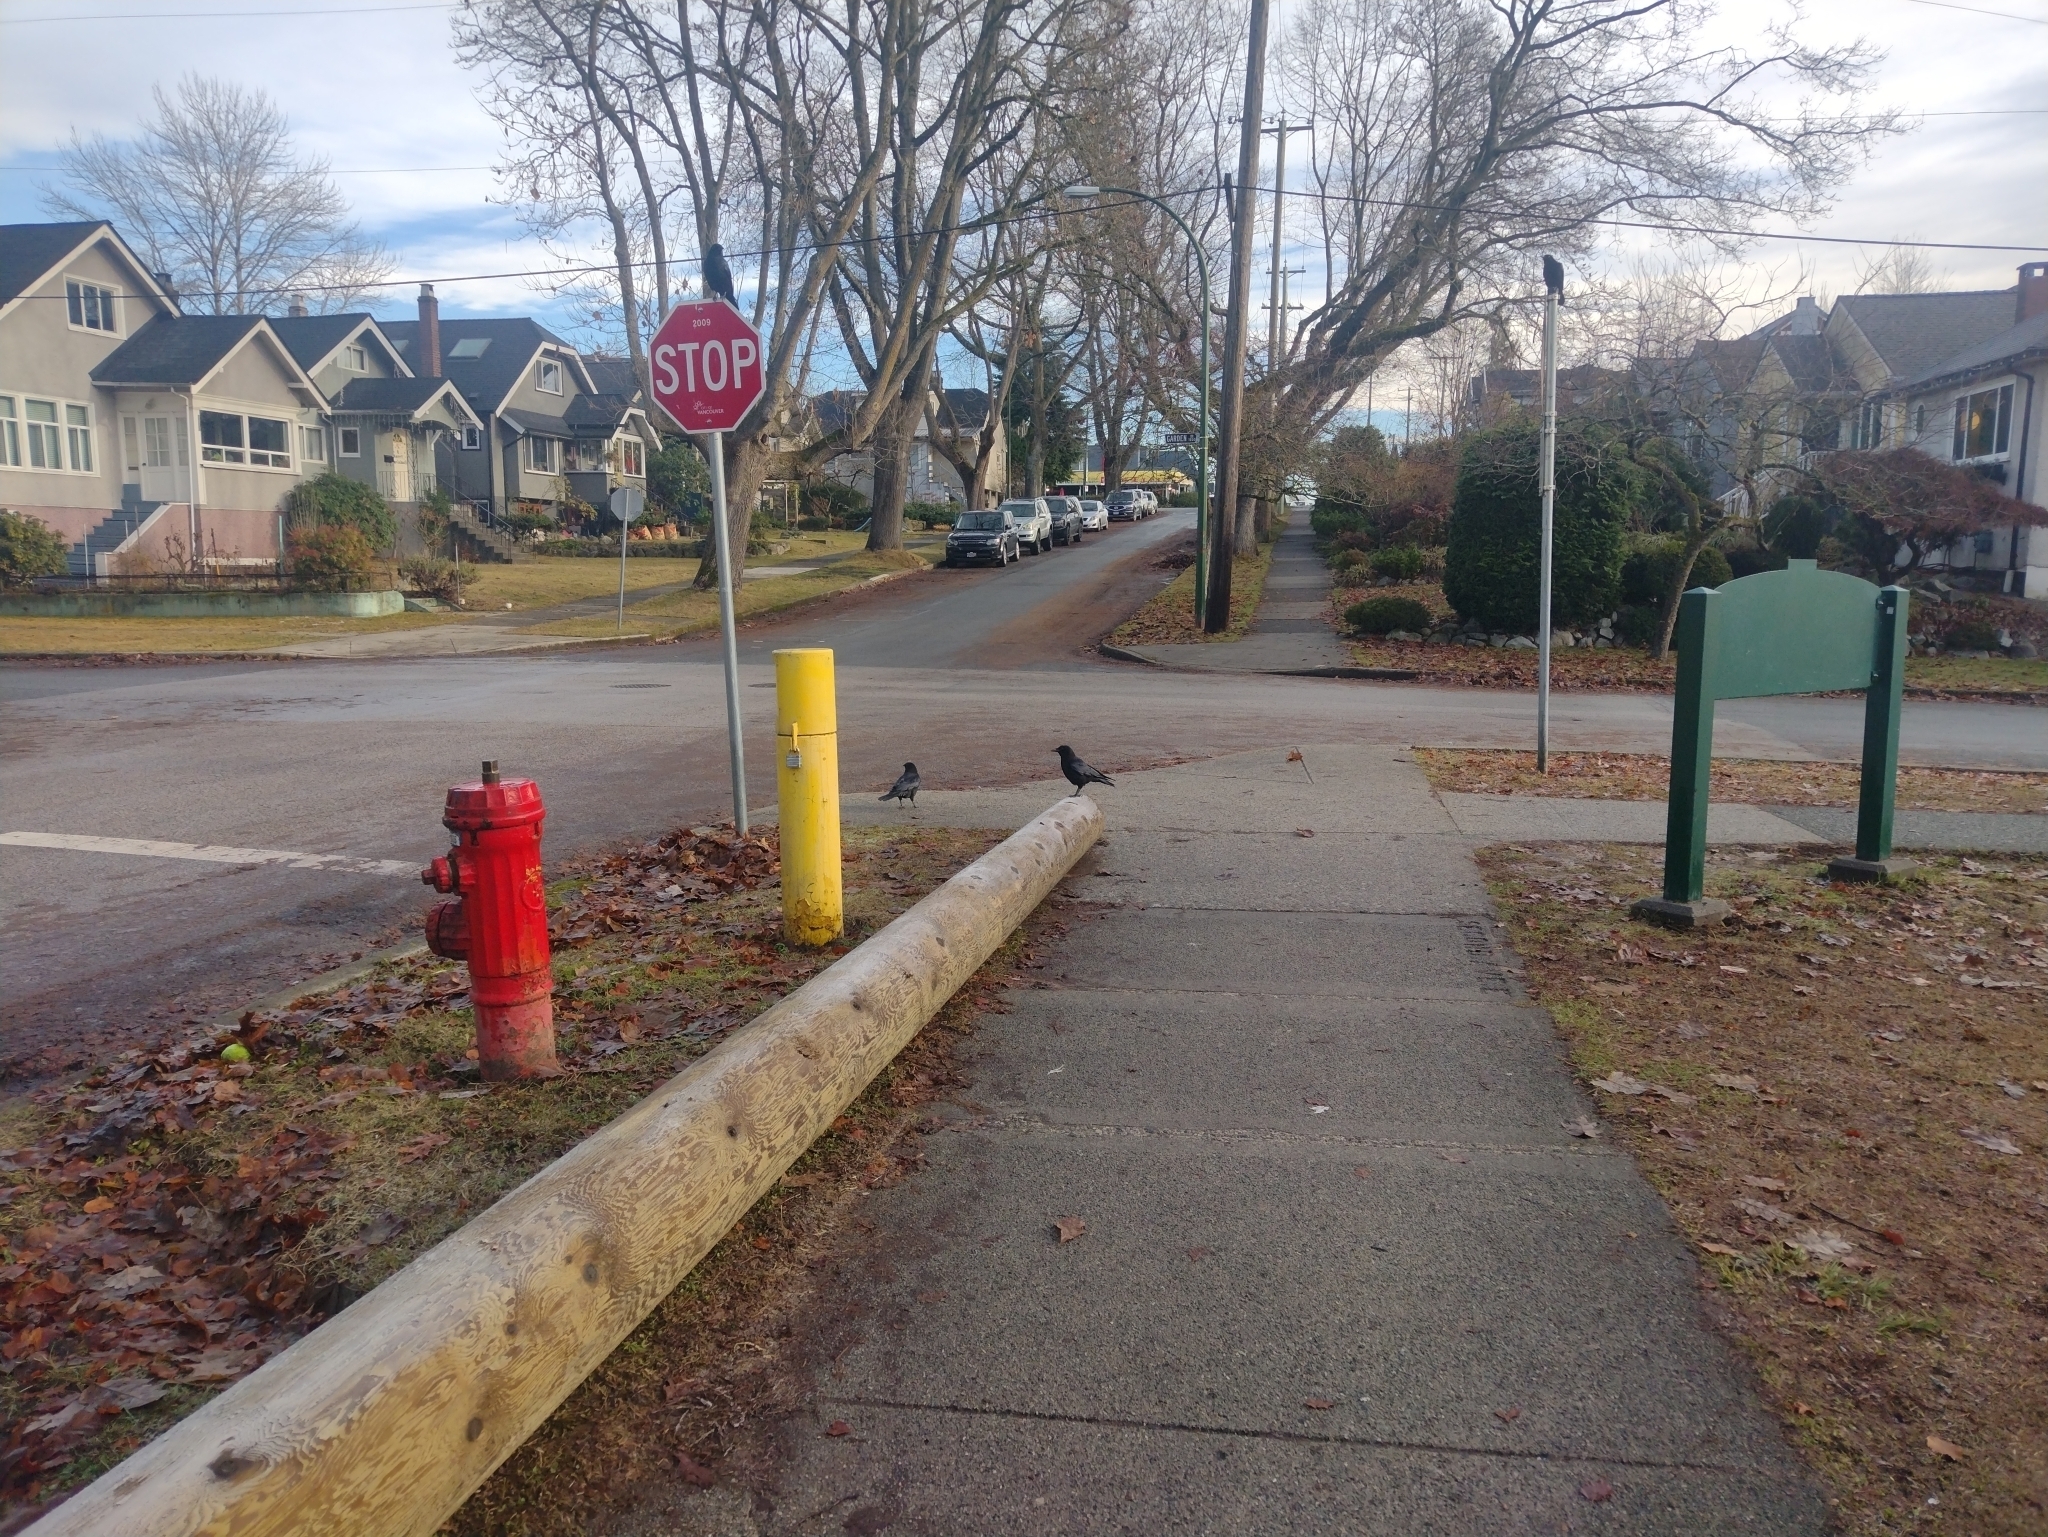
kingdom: Animalia
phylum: Chordata
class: Aves
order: Passeriformes
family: Corvidae
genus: Corvus
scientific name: Corvus brachyrhynchos
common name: American crow
